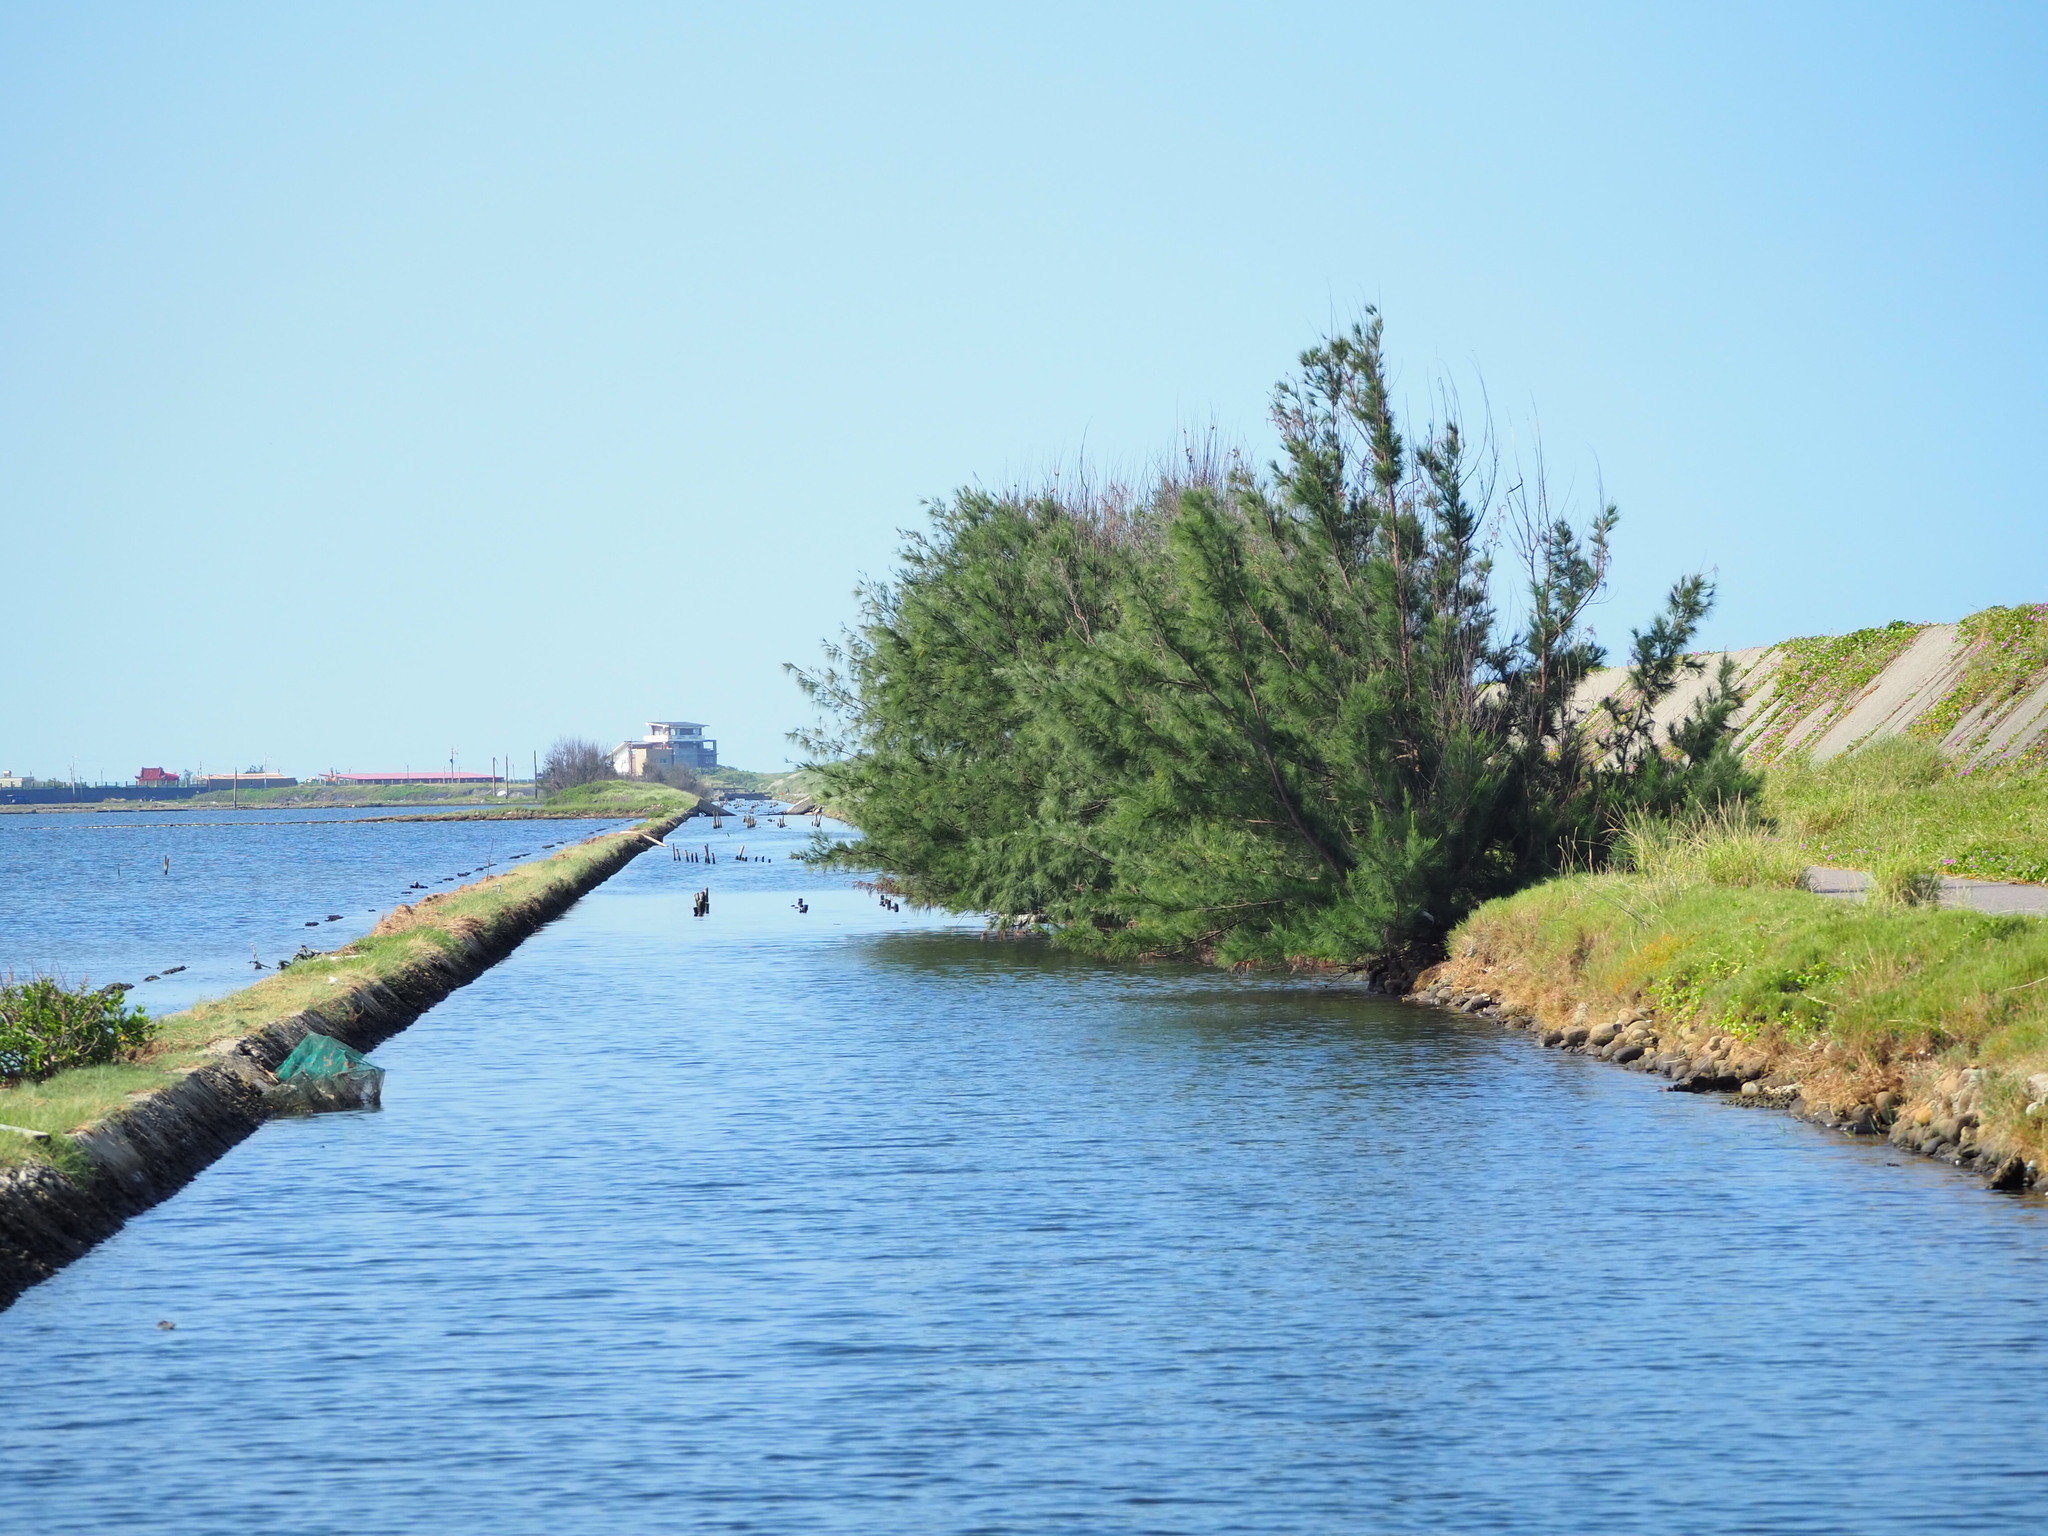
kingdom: Plantae
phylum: Tracheophyta
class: Magnoliopsida
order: Fagales
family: Casuarinaceae
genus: Casuarina
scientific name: Casuarina equisetifolia
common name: Beach sheoak
